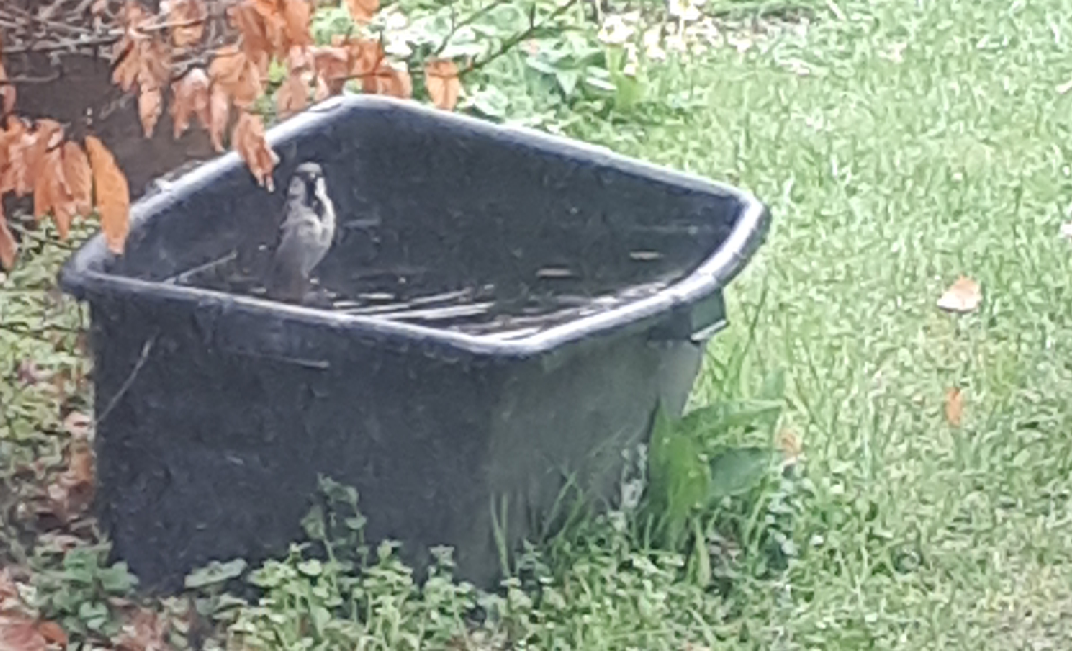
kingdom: Animalia
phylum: Chordata
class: Aves
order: Passeriformes
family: Passeridae
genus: Passer
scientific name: Passer domesticus
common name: House sparrow
